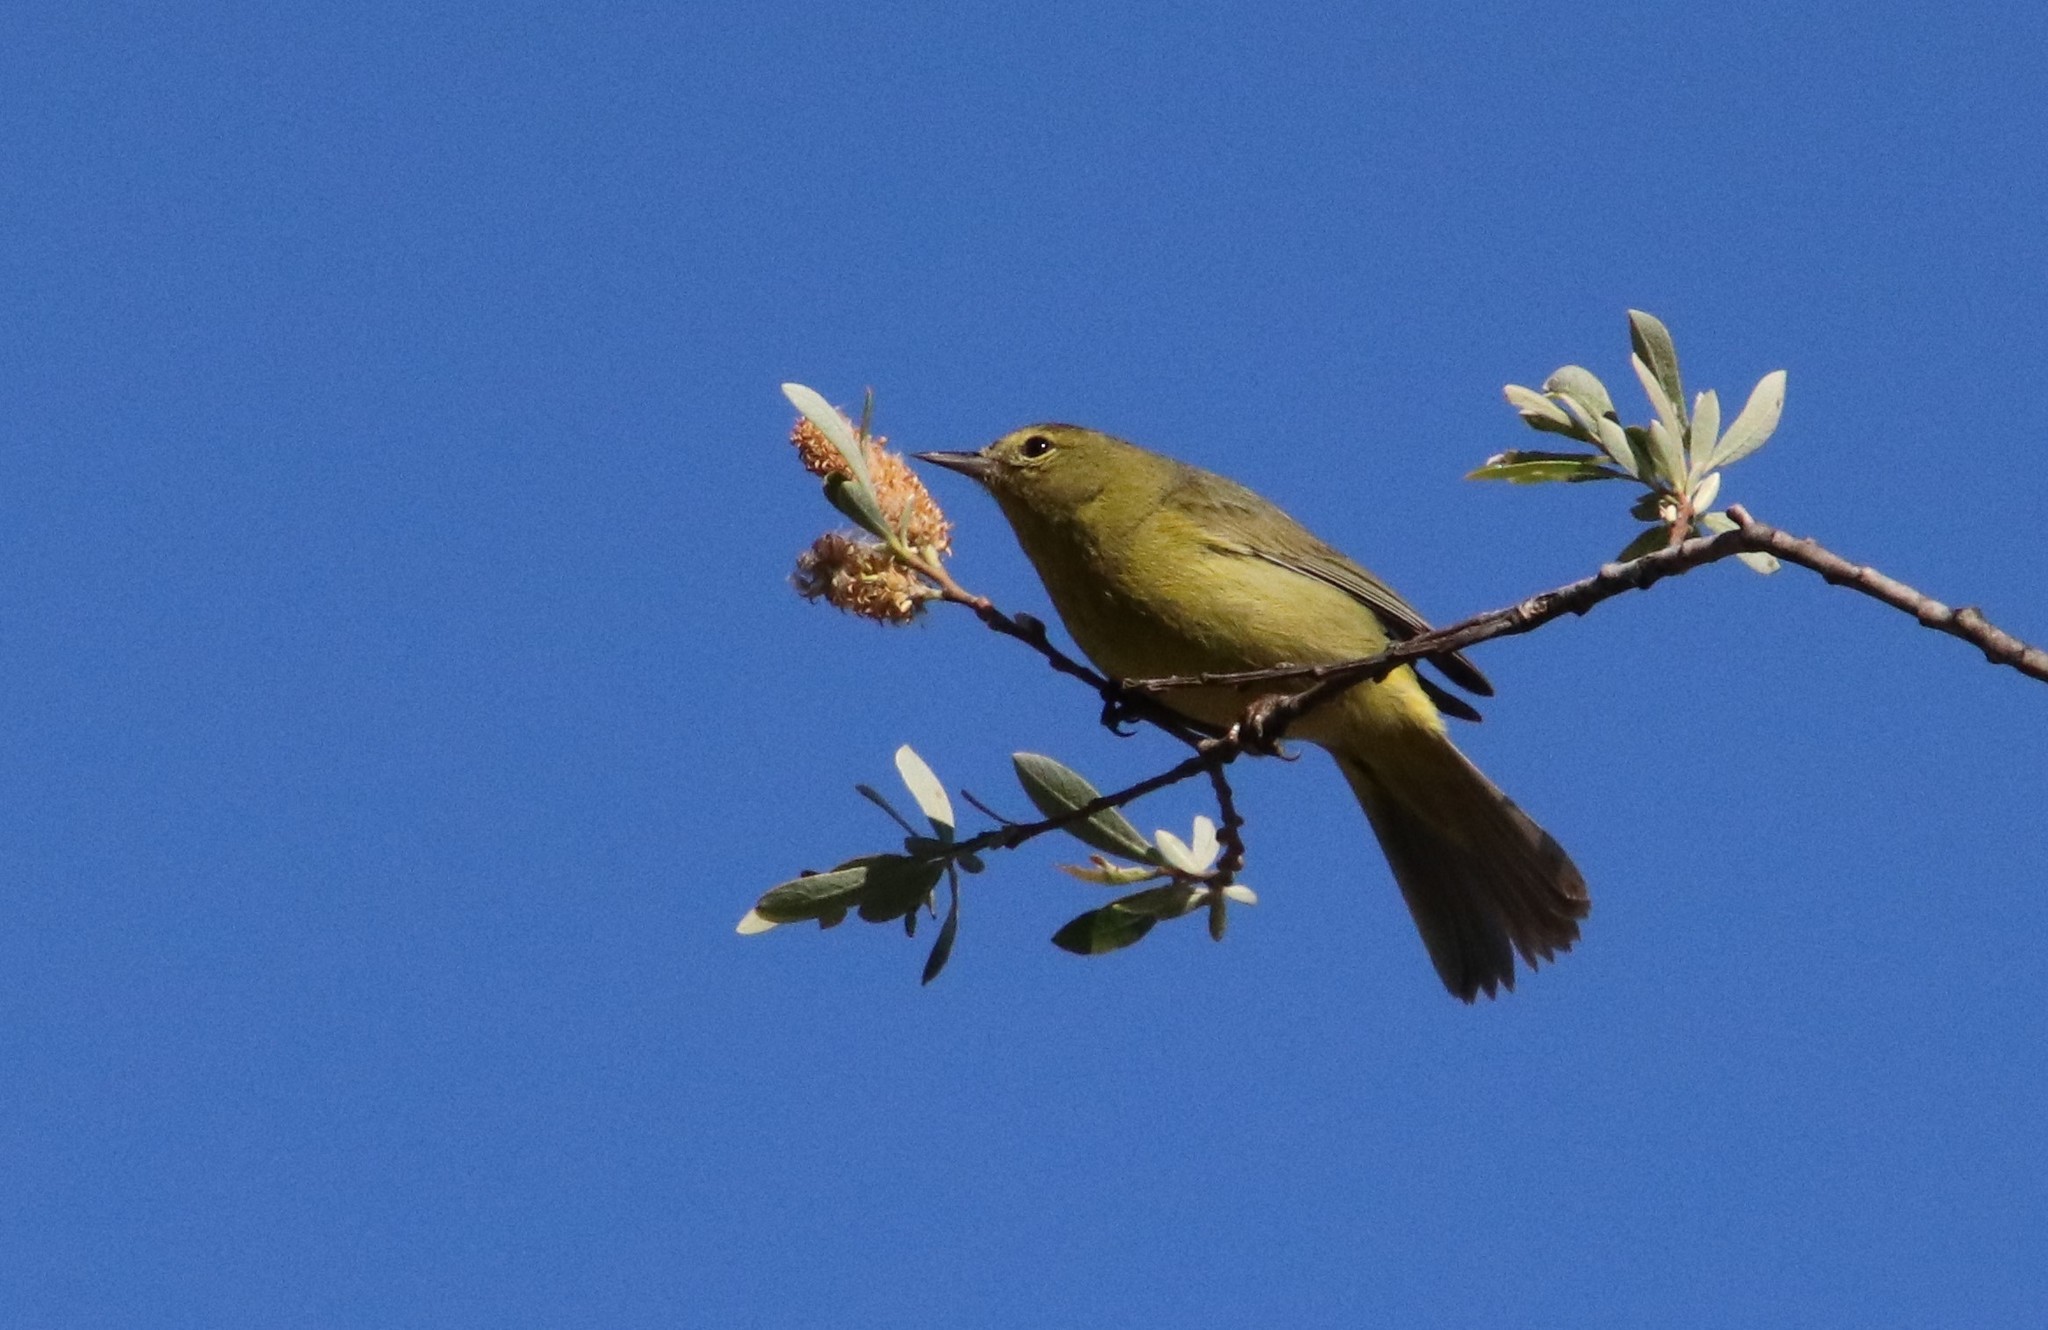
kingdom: Animalia
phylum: Chordata
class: Aves
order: Passeriformes
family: Parulidae
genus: Leiothlypis
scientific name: Leiothlypis celata
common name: Orange-crowned warbler
